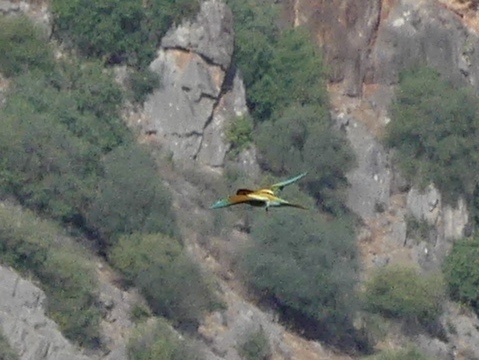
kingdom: Animalia
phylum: Chordata
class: Aves
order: Coraciiformes
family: Meropidae
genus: Merops
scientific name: Merops apiaster
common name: European bee-eater
